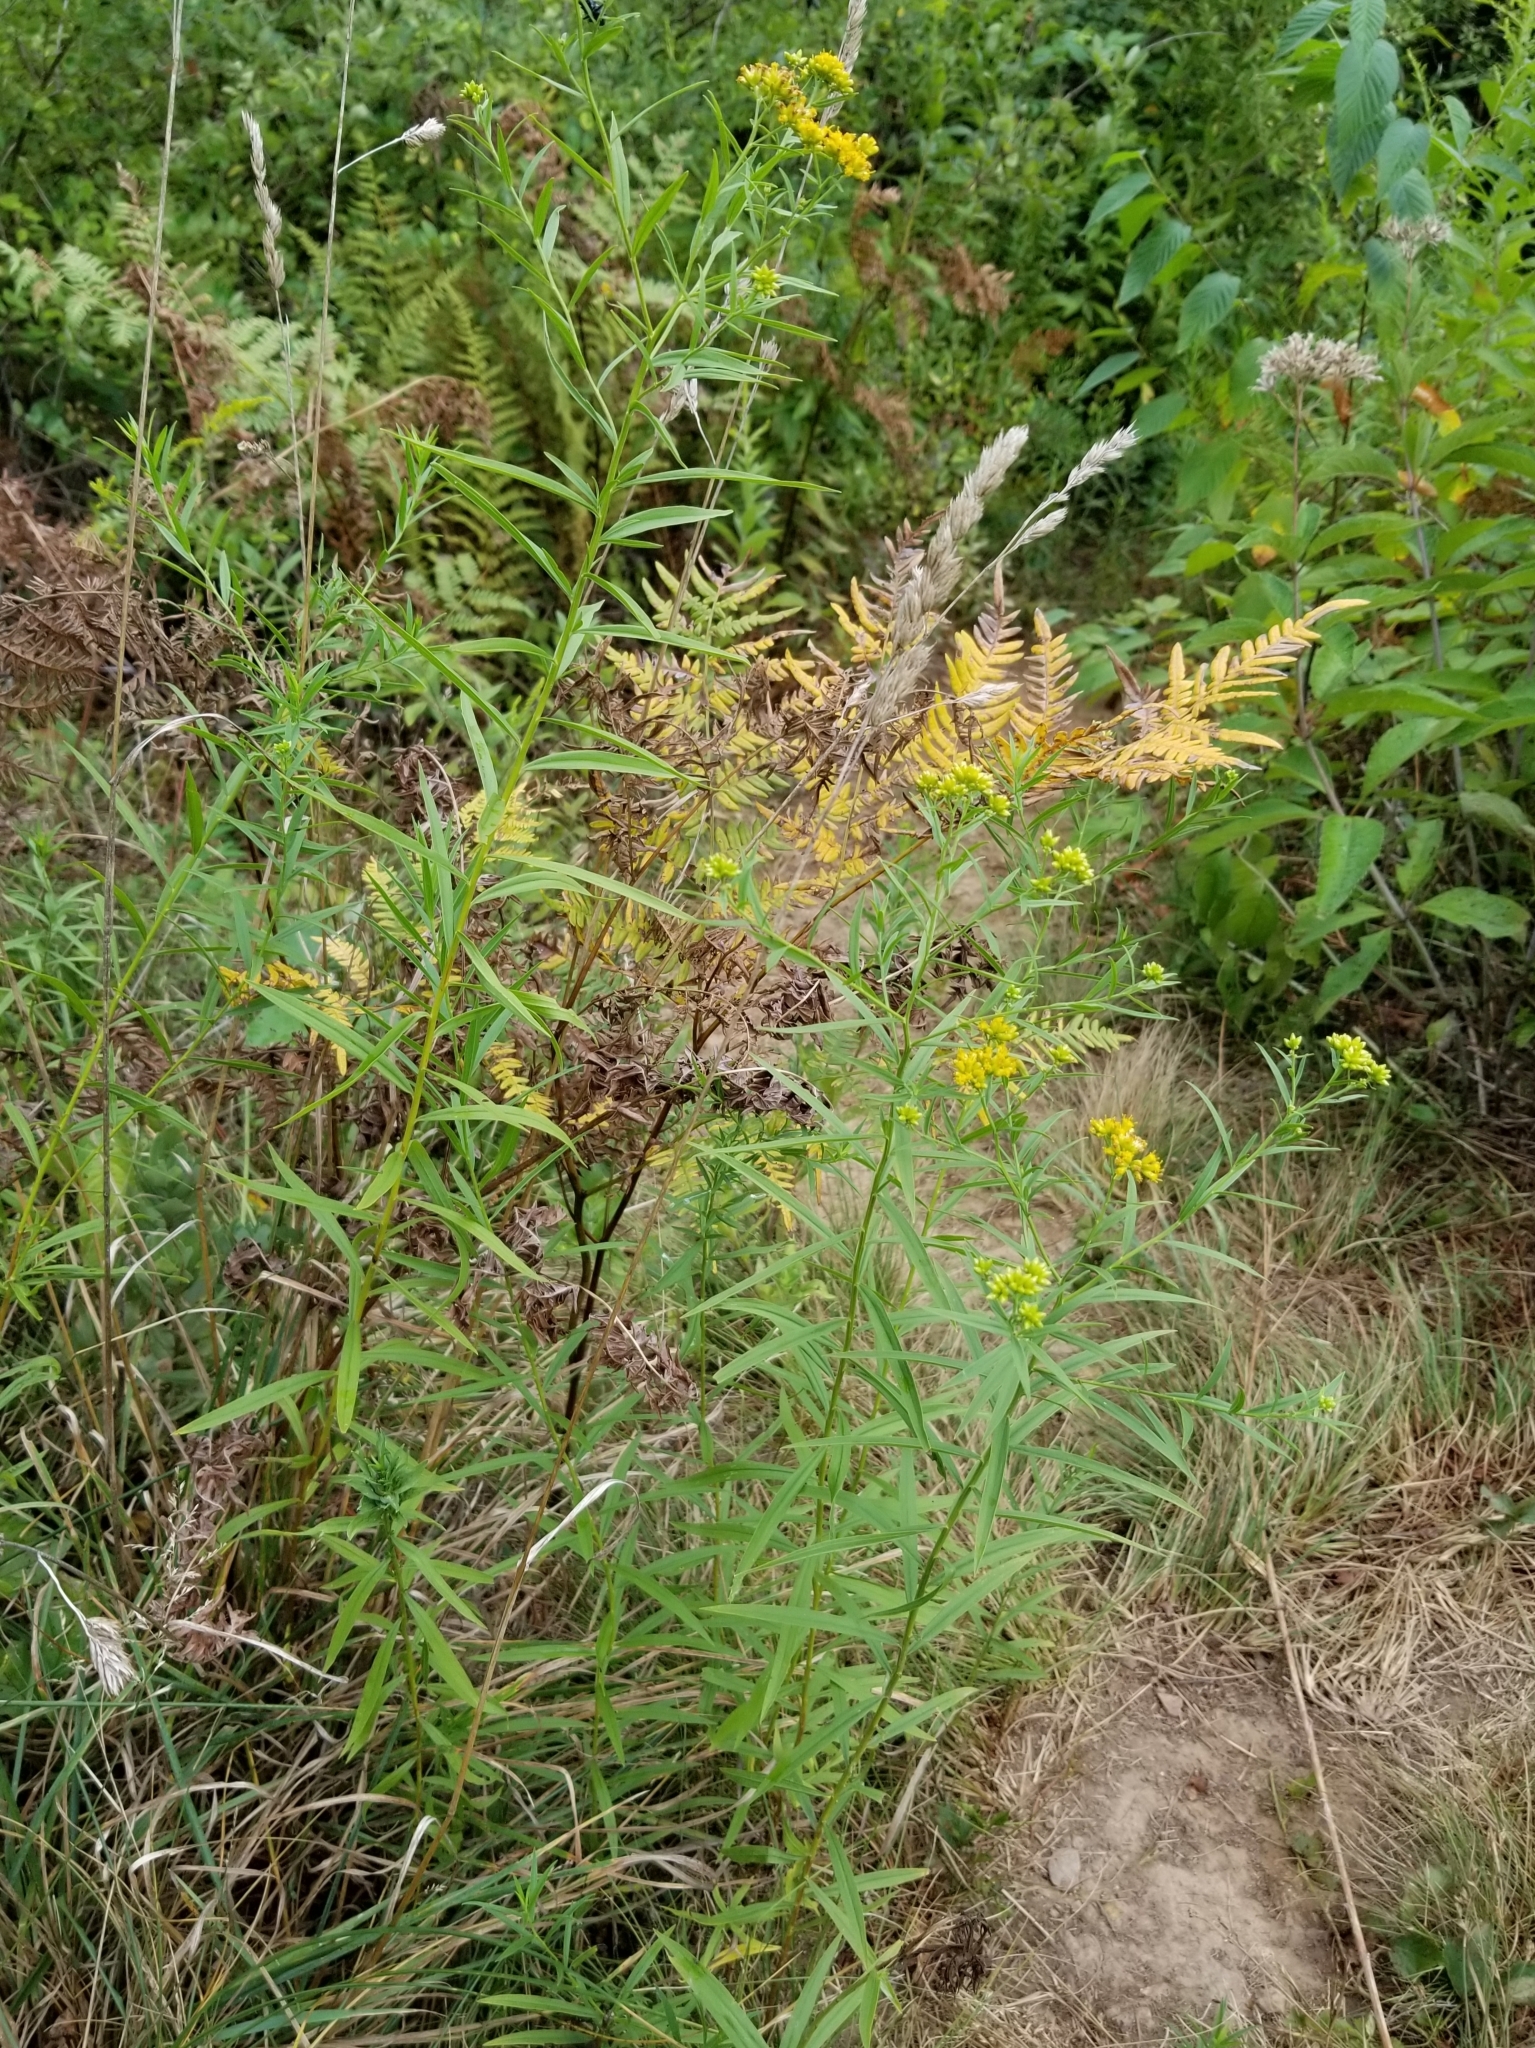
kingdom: Plantae
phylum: Tracheophyta
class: Magnoliopsida
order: Asterales
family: Asteraceae
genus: Euthamia
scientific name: Euthamia graminifolia
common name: Common goldentop
